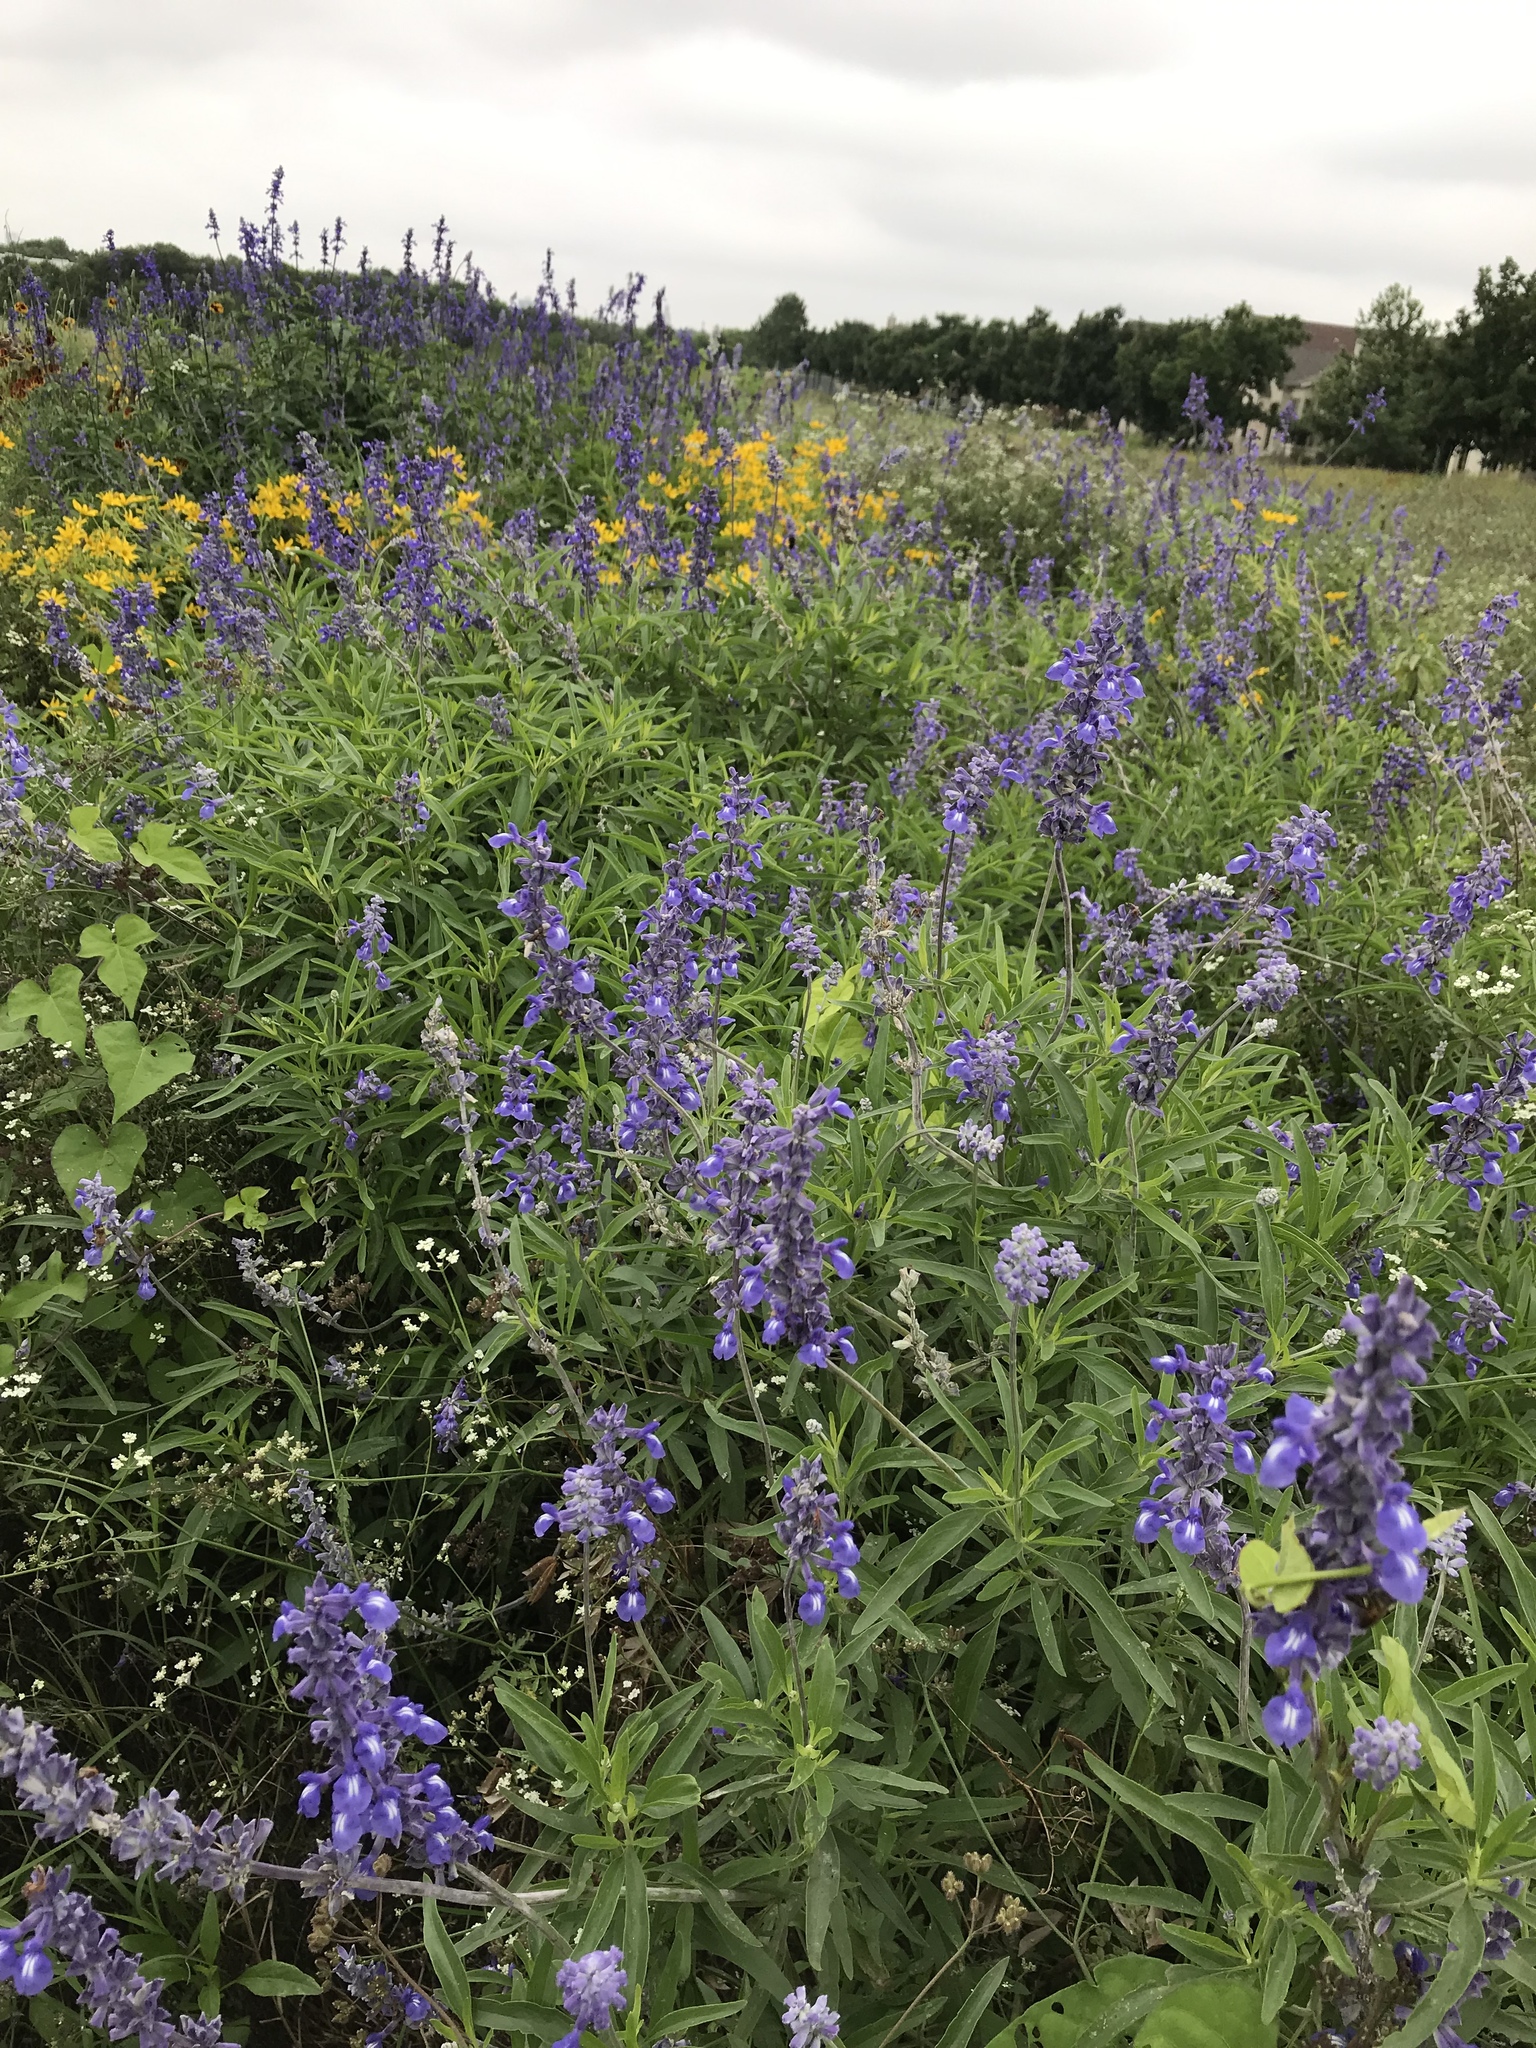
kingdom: Plantae
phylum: Tracheophyta
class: Magnoliopsida
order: Lamiales
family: Lamiaceae
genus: Salvia
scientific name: Salvia farinacea
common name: Mealy sage
